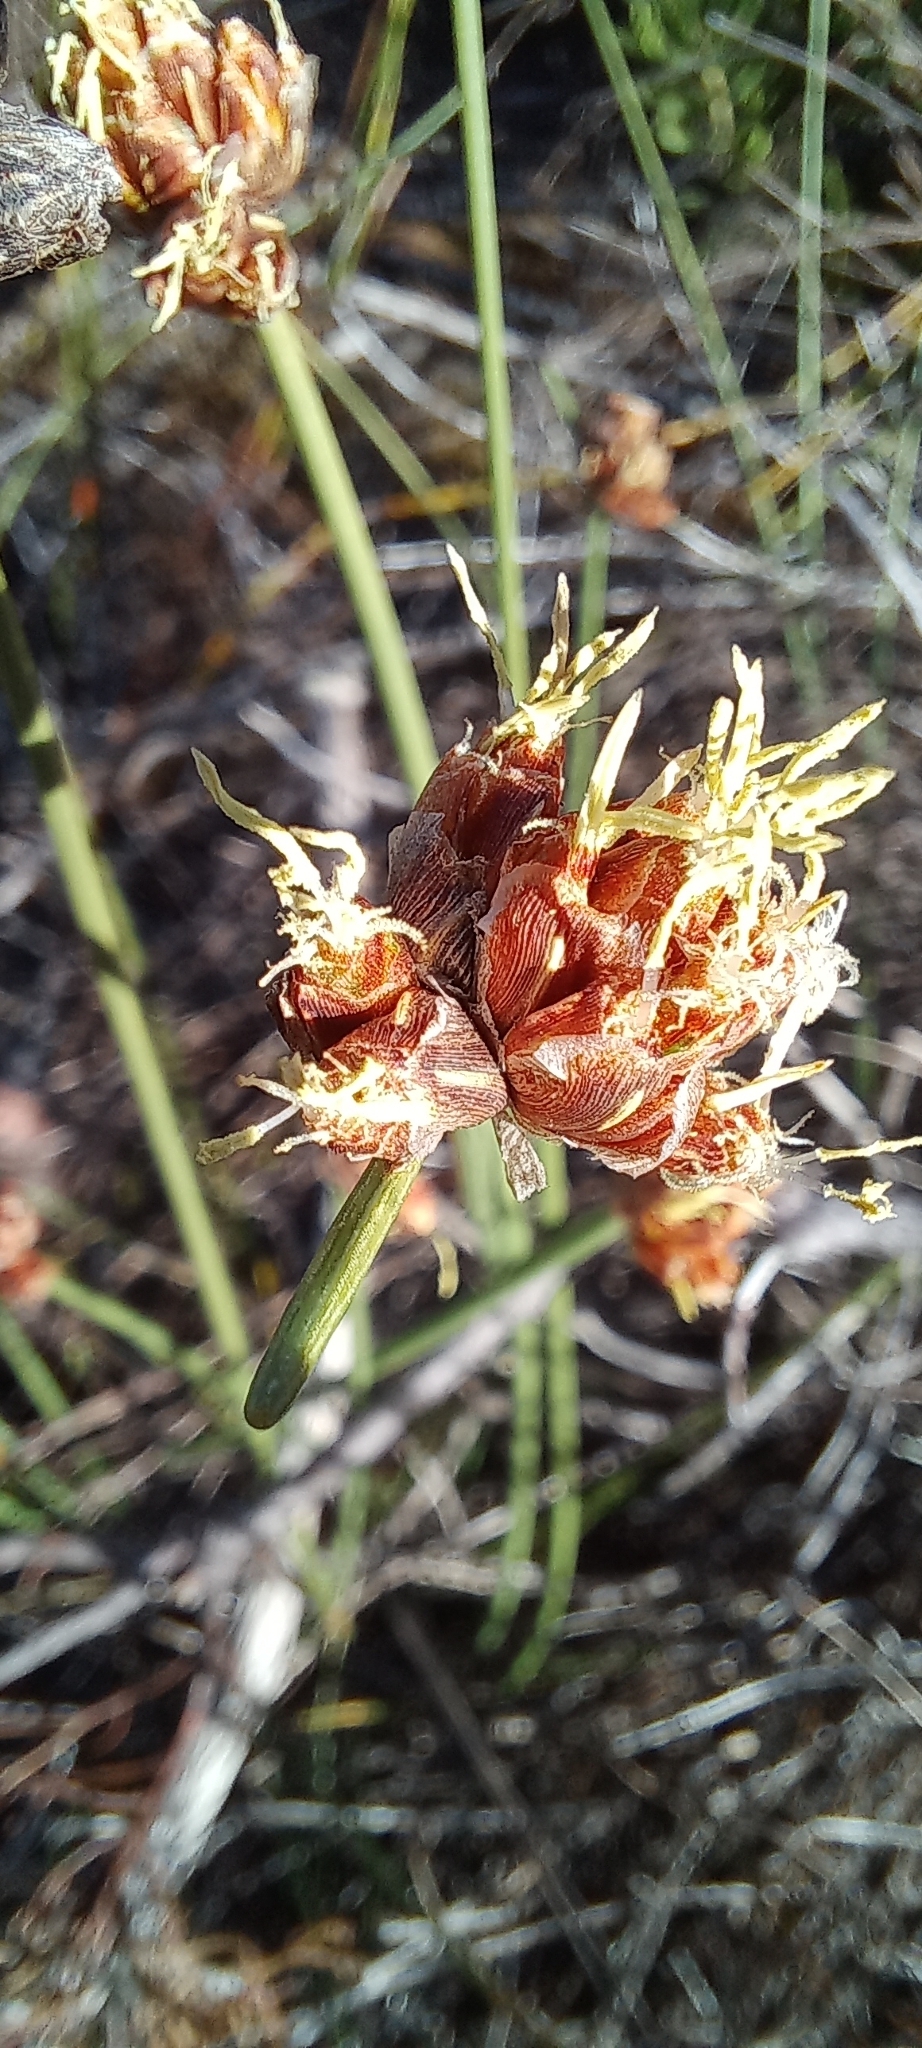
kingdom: Plantae
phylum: Tracheophyta
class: Liliopsida
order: Poales
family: Cyperaceae
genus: Ficinia
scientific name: Ficinia pinguior
